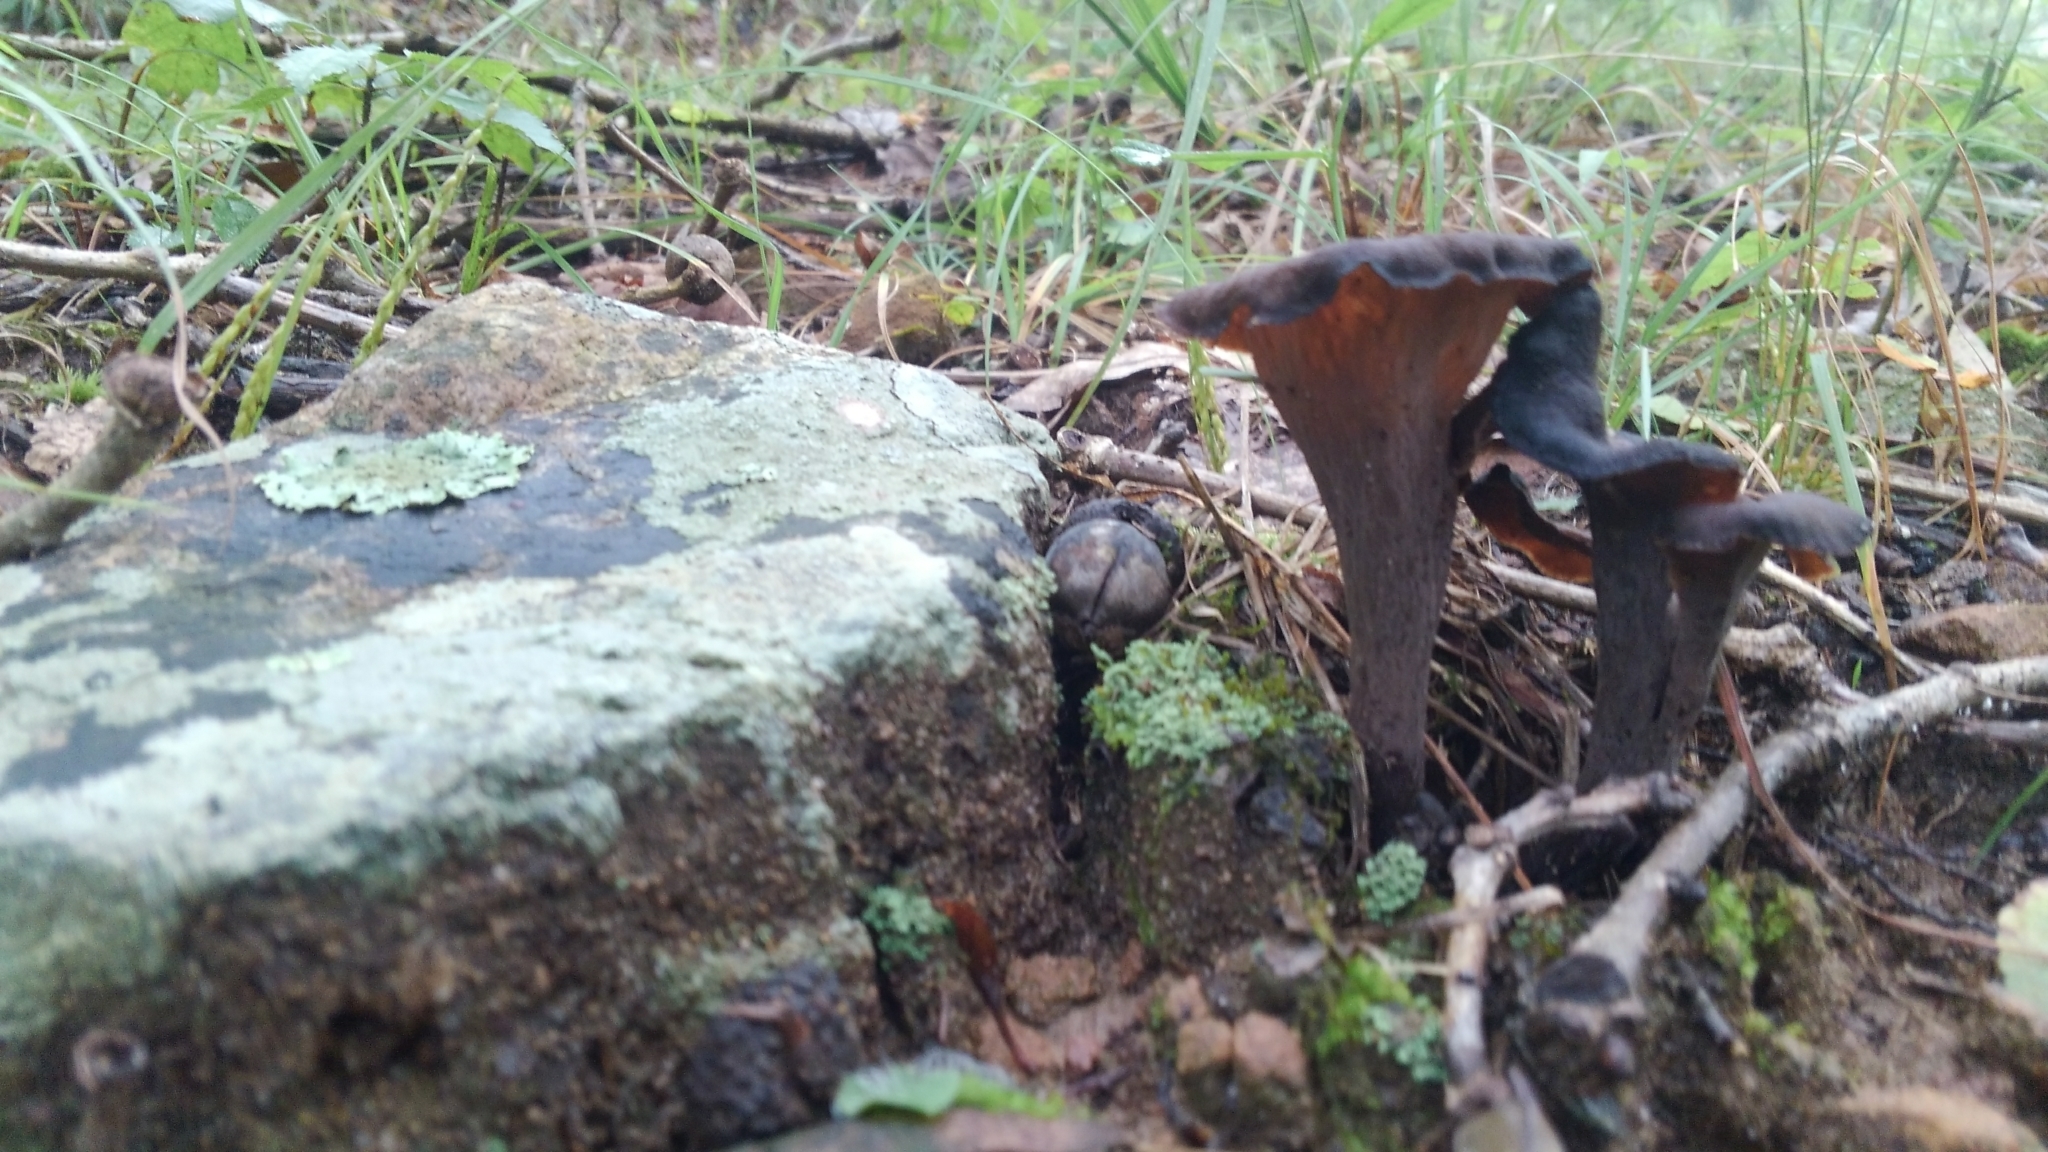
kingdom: Fungi
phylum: Basidiomycota
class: Agaricomycetes
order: Cantharellales
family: Hydnaceae
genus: Craterellus
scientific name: Craterellus cornucopioides
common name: Horn of plenty
